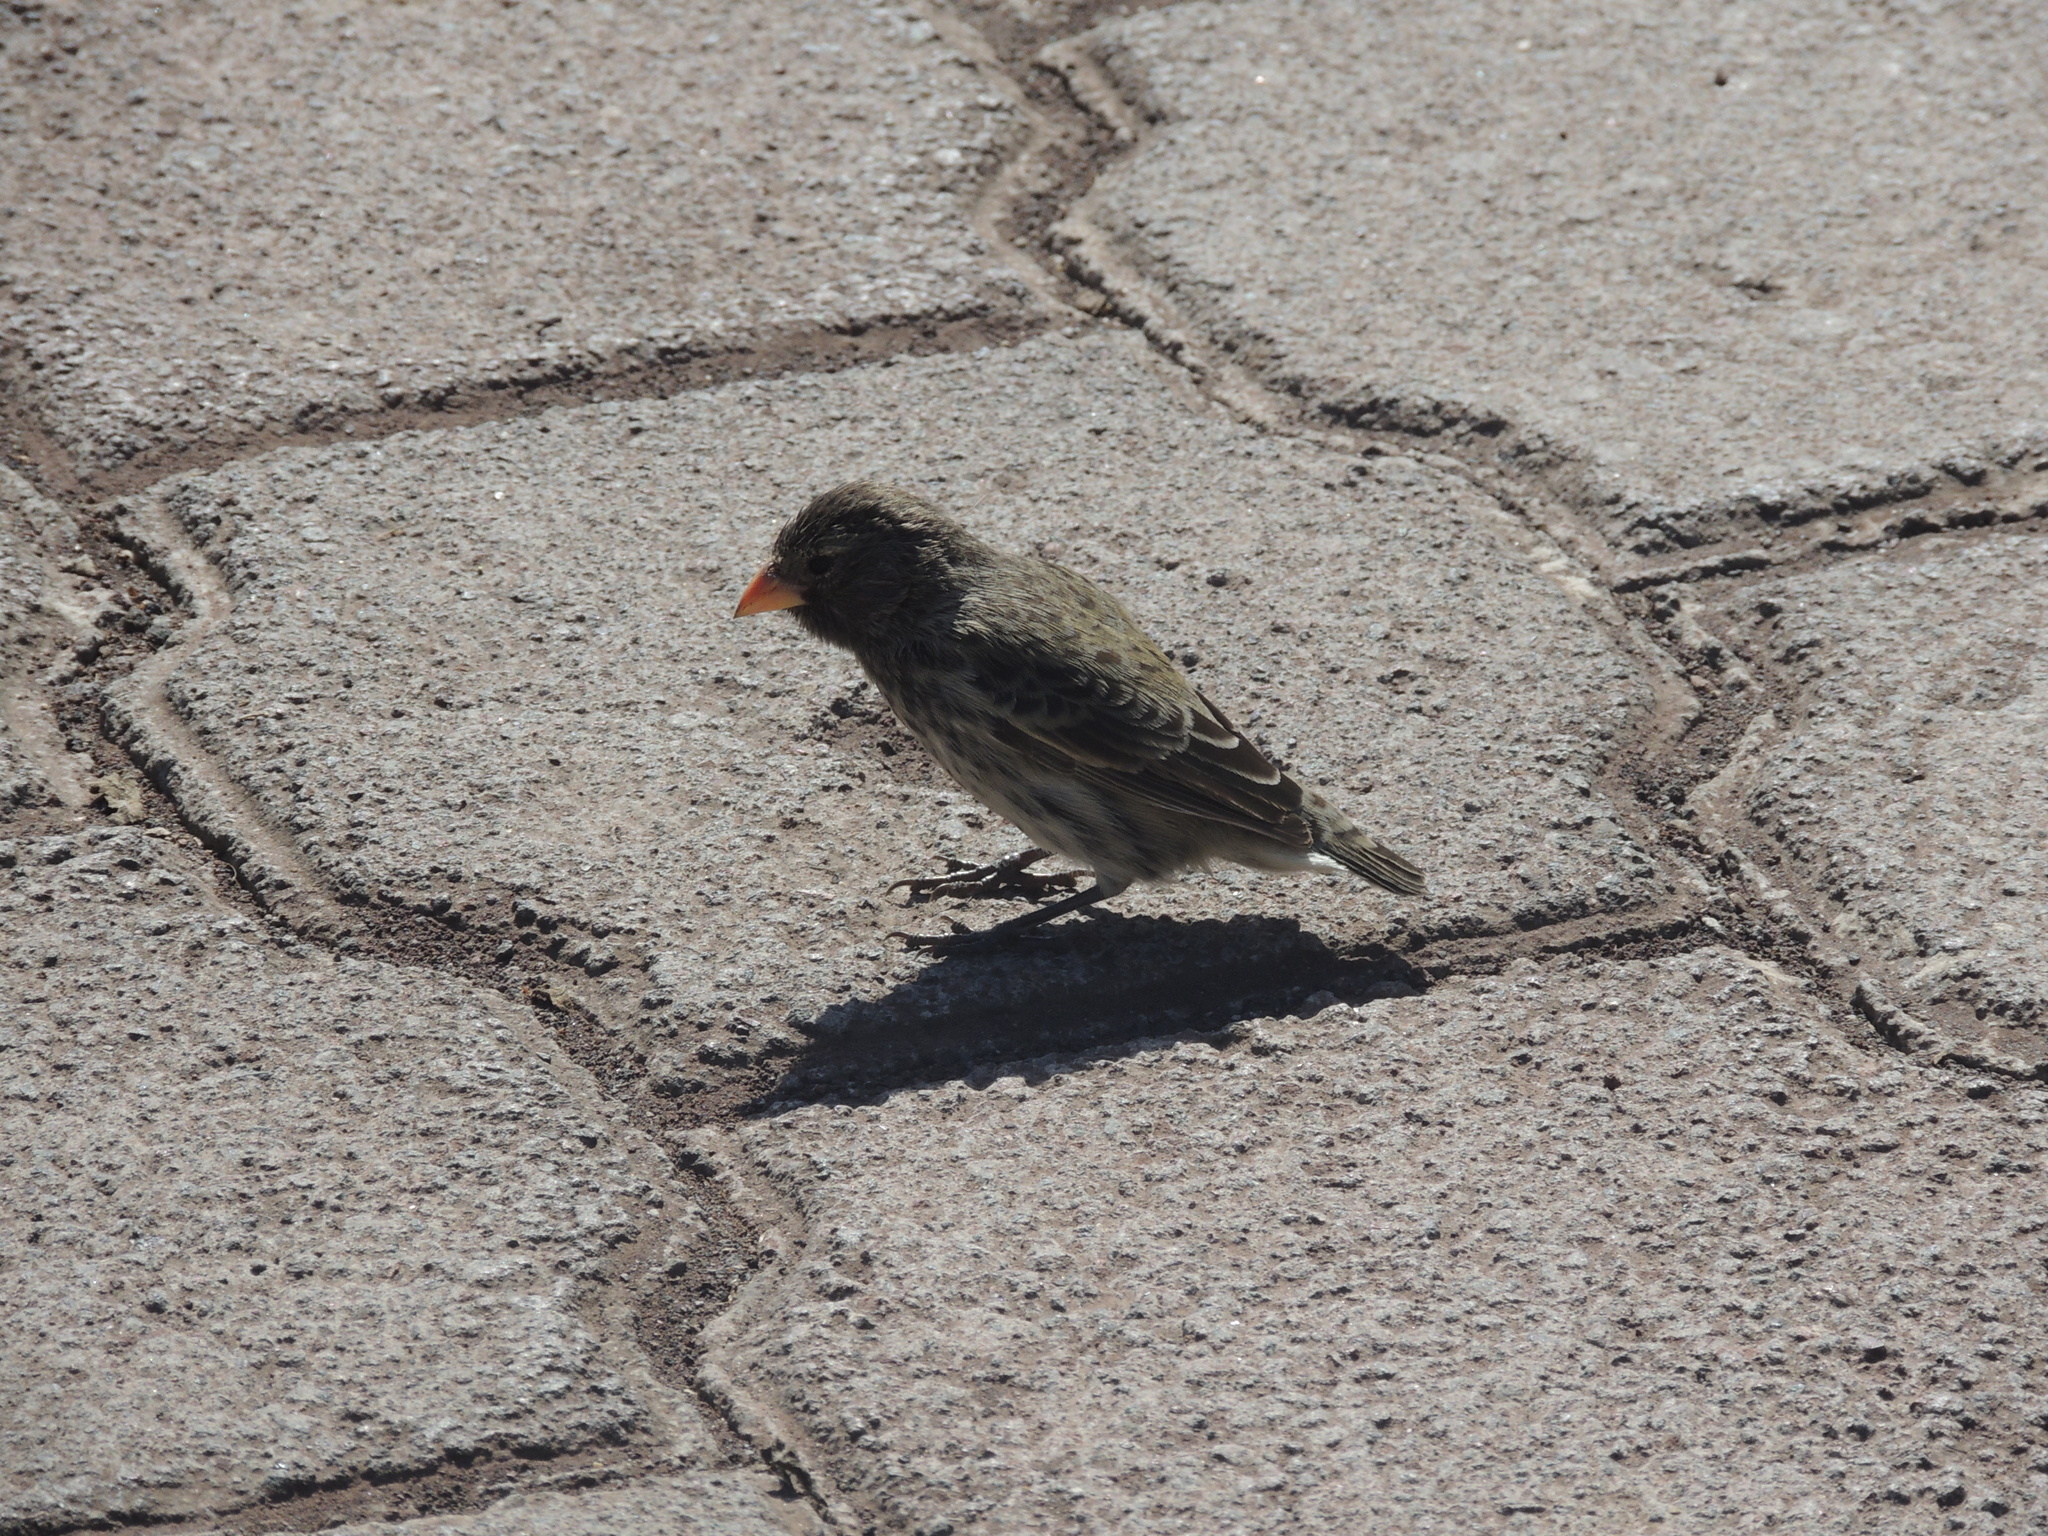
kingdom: Animalia
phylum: Chordata
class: Aves
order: Passeriformes
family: Thraupidae
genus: Geospiza
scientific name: Geospiza fuliginosa
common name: Small ground finch
